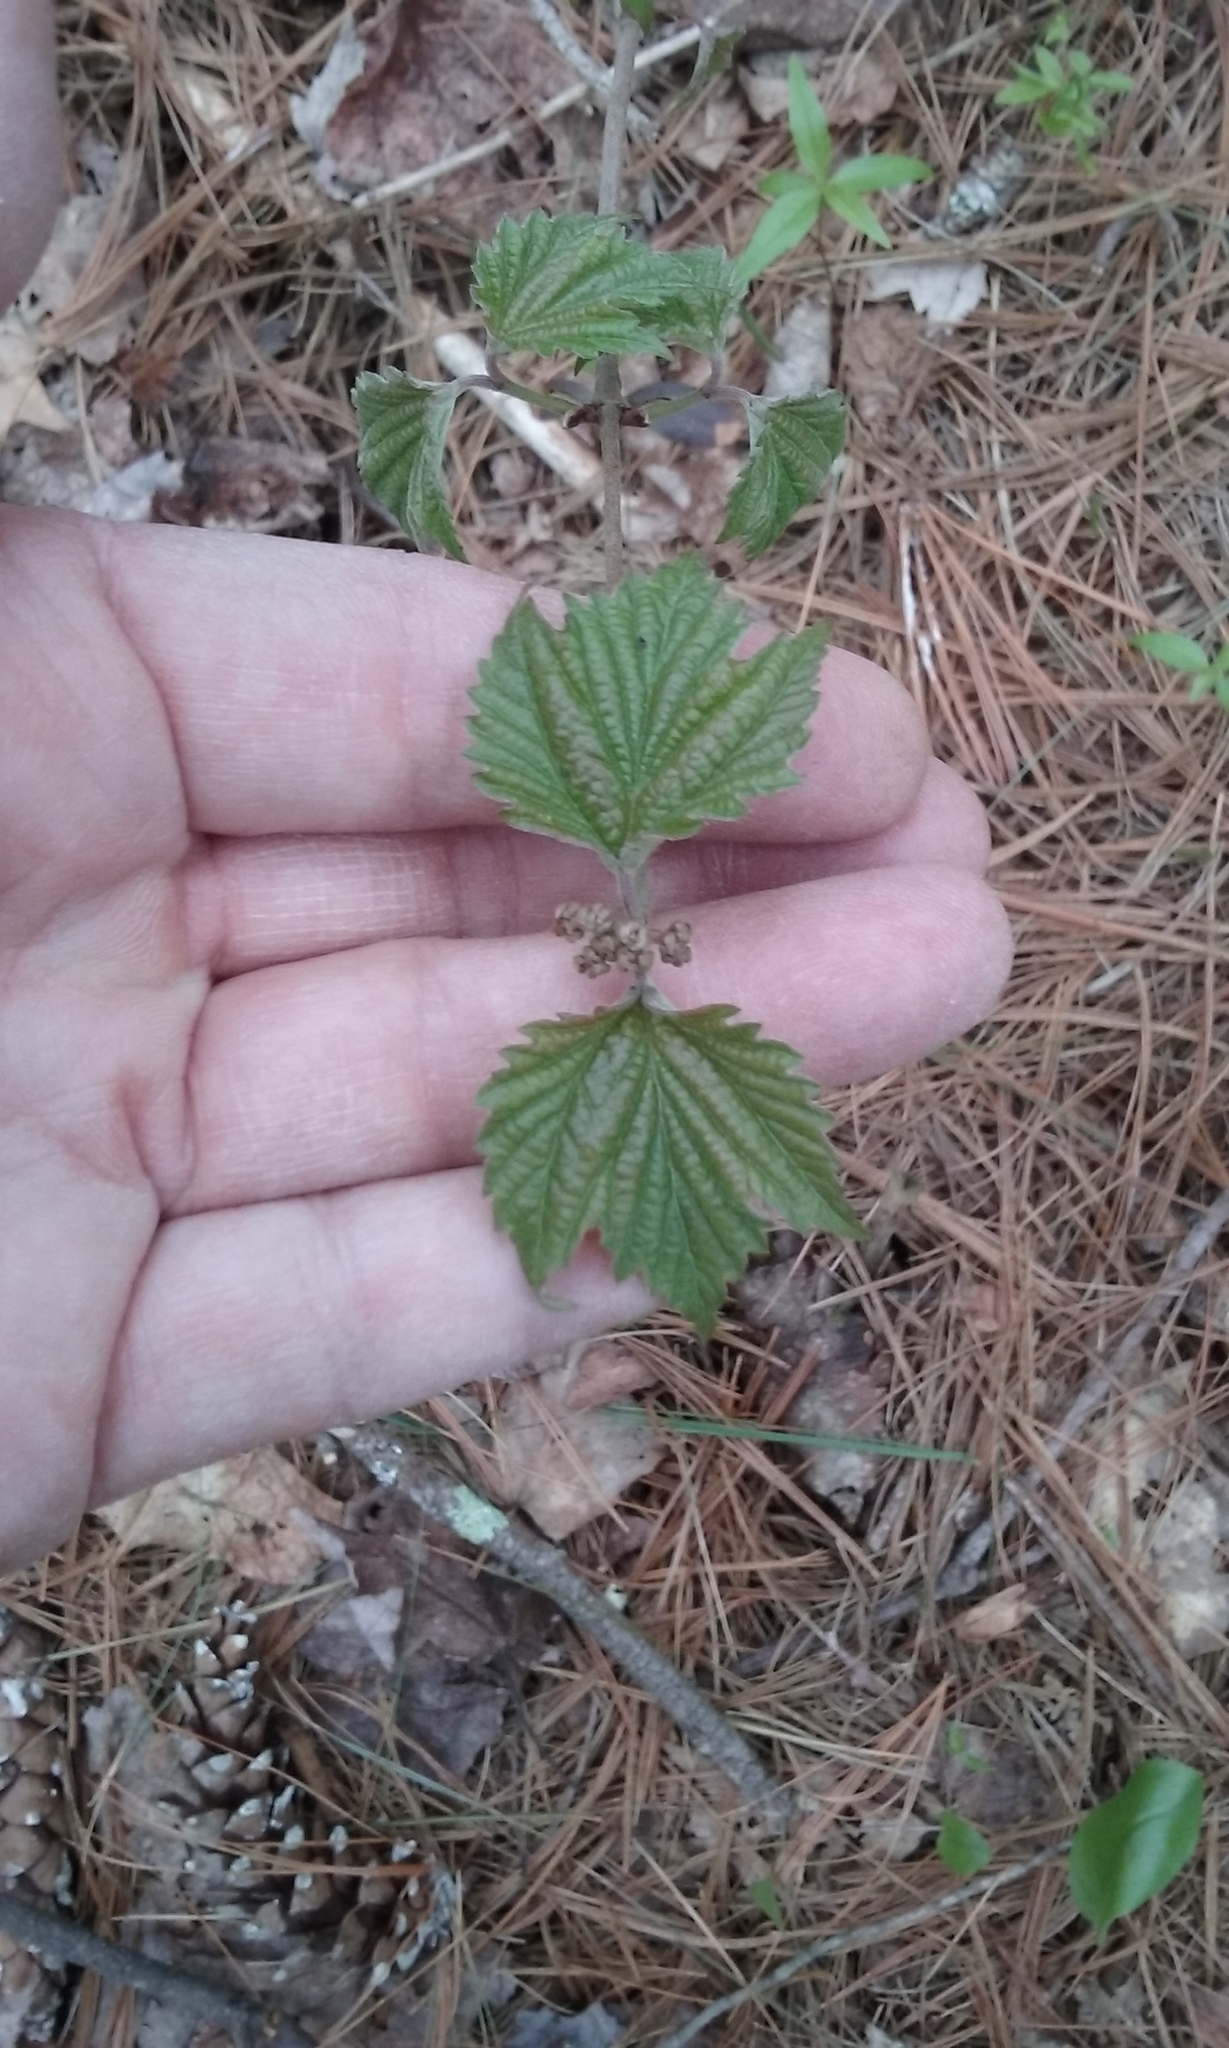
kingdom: Plantae
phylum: Tracheophyta
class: Magnoliopsida
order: Dipsacales
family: Viburnaceae
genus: Viburnum
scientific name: Viburnum acerifolium
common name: Dockmackie
